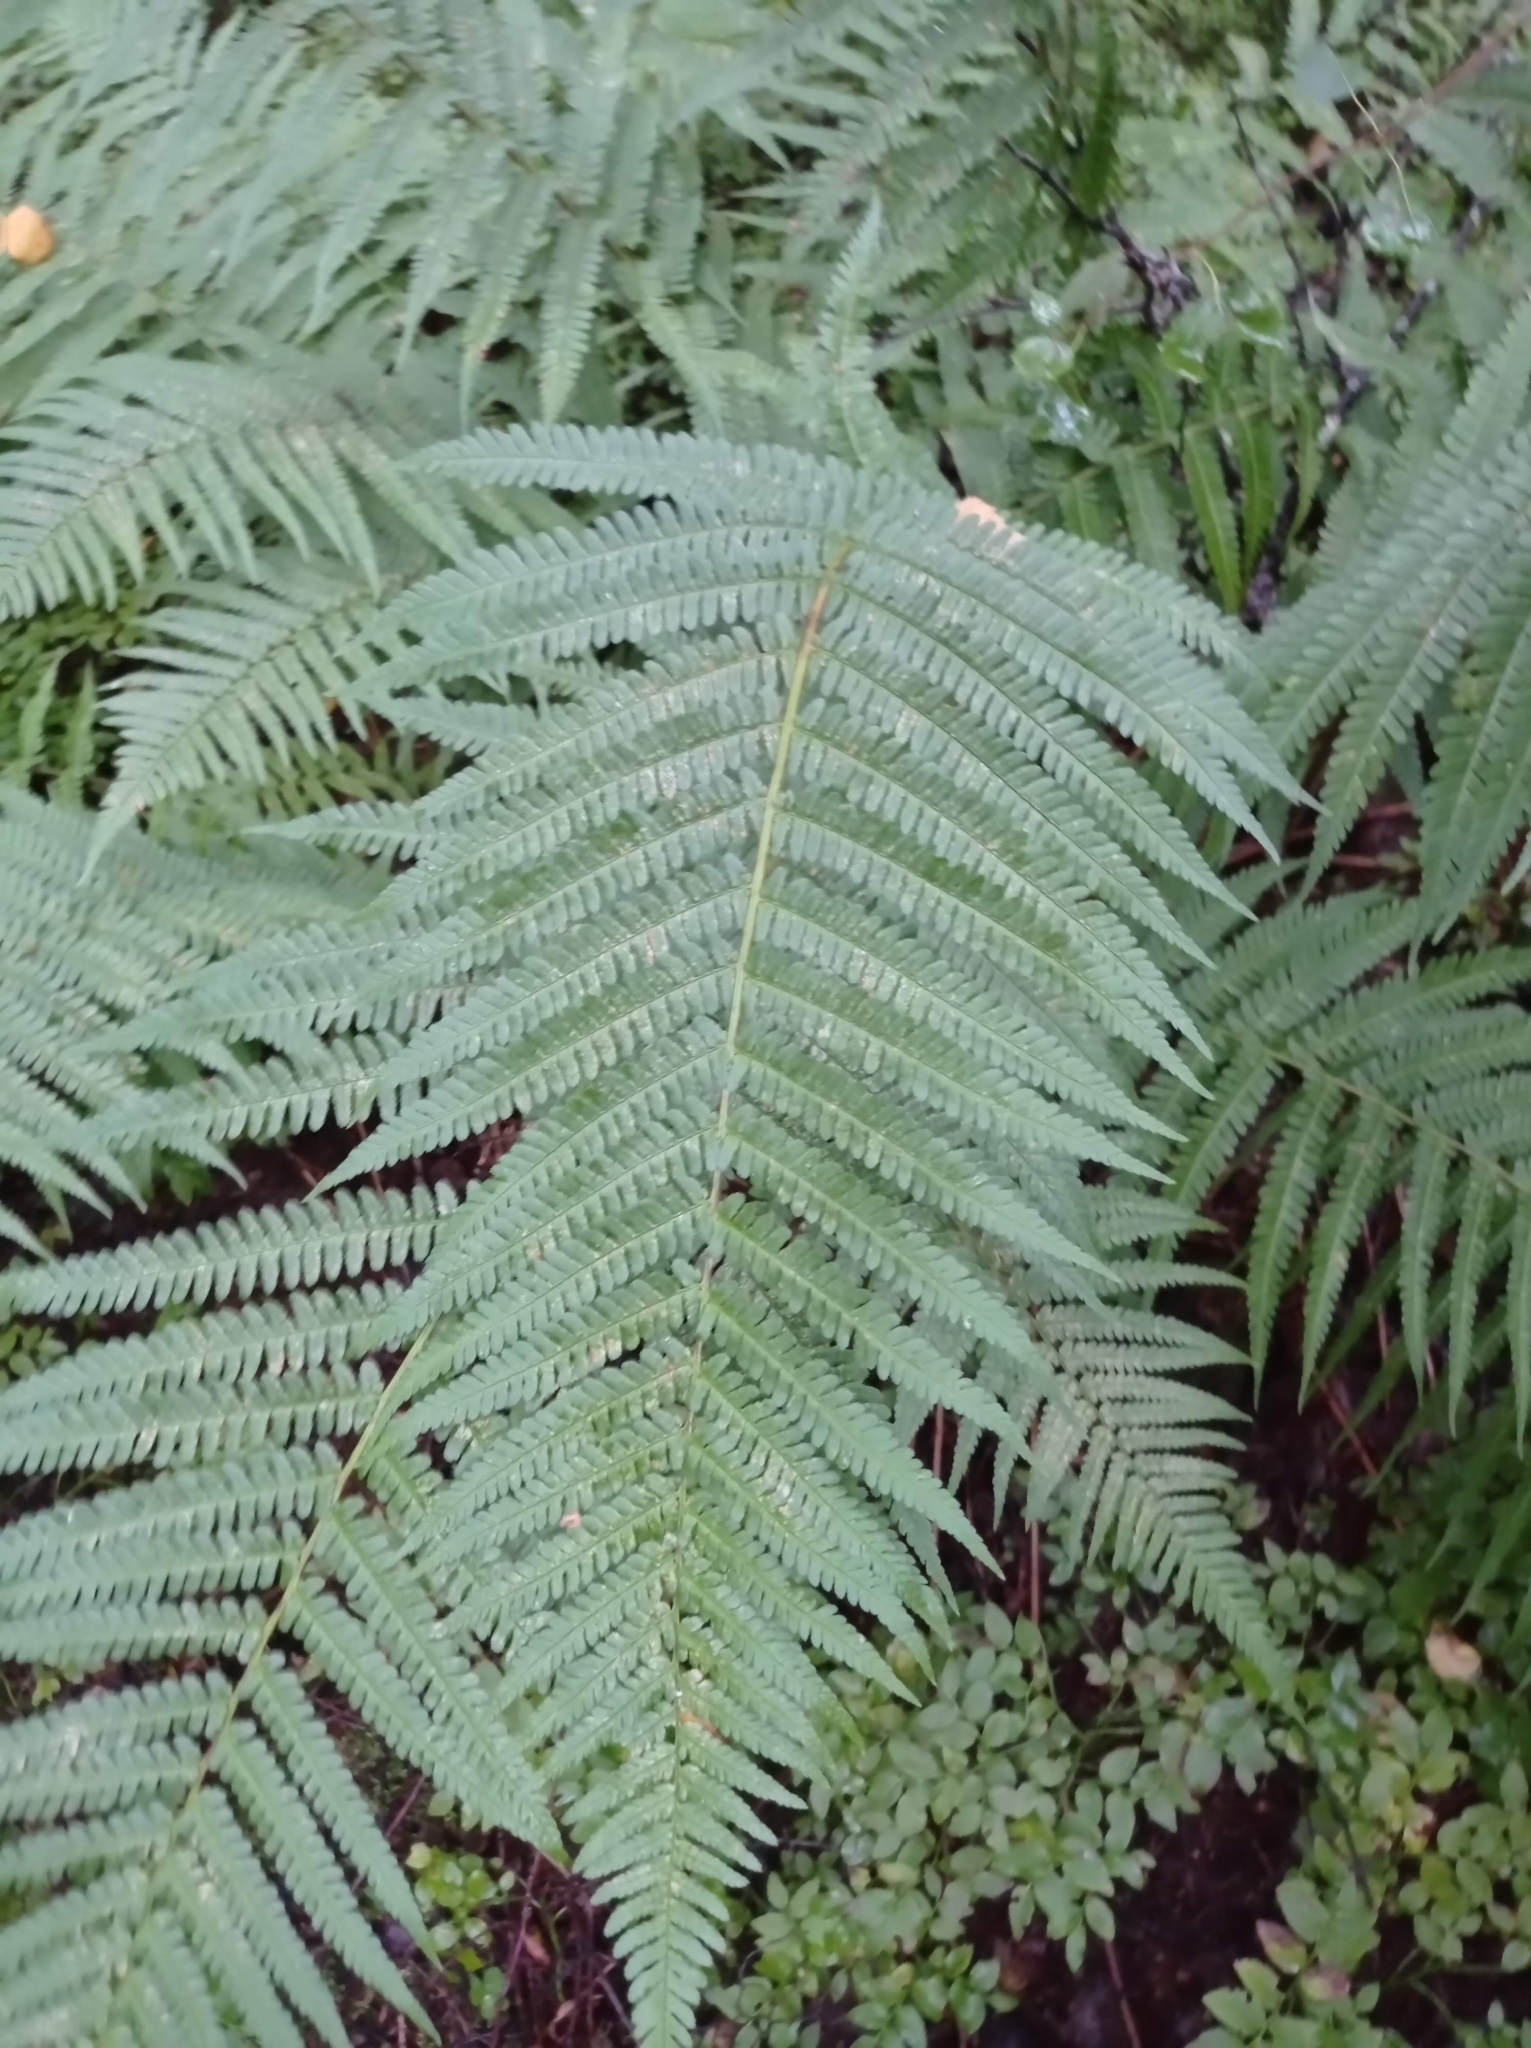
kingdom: Plantae
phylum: Tracheophyta
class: Polypodiopsida
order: Polypodiales
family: Dryopteridaceae
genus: Dryopteris
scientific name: Dryopteris filix-mas
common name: Male fern
